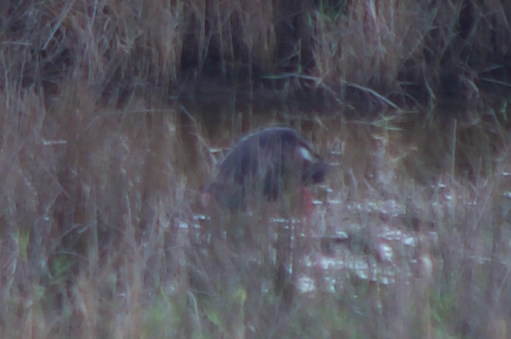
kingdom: Animalia
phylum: Chordata
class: Aves
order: Gruiformes
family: Rallidae
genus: Porphyrio
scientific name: Porphyrio porphyrio
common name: Purple swamphen
